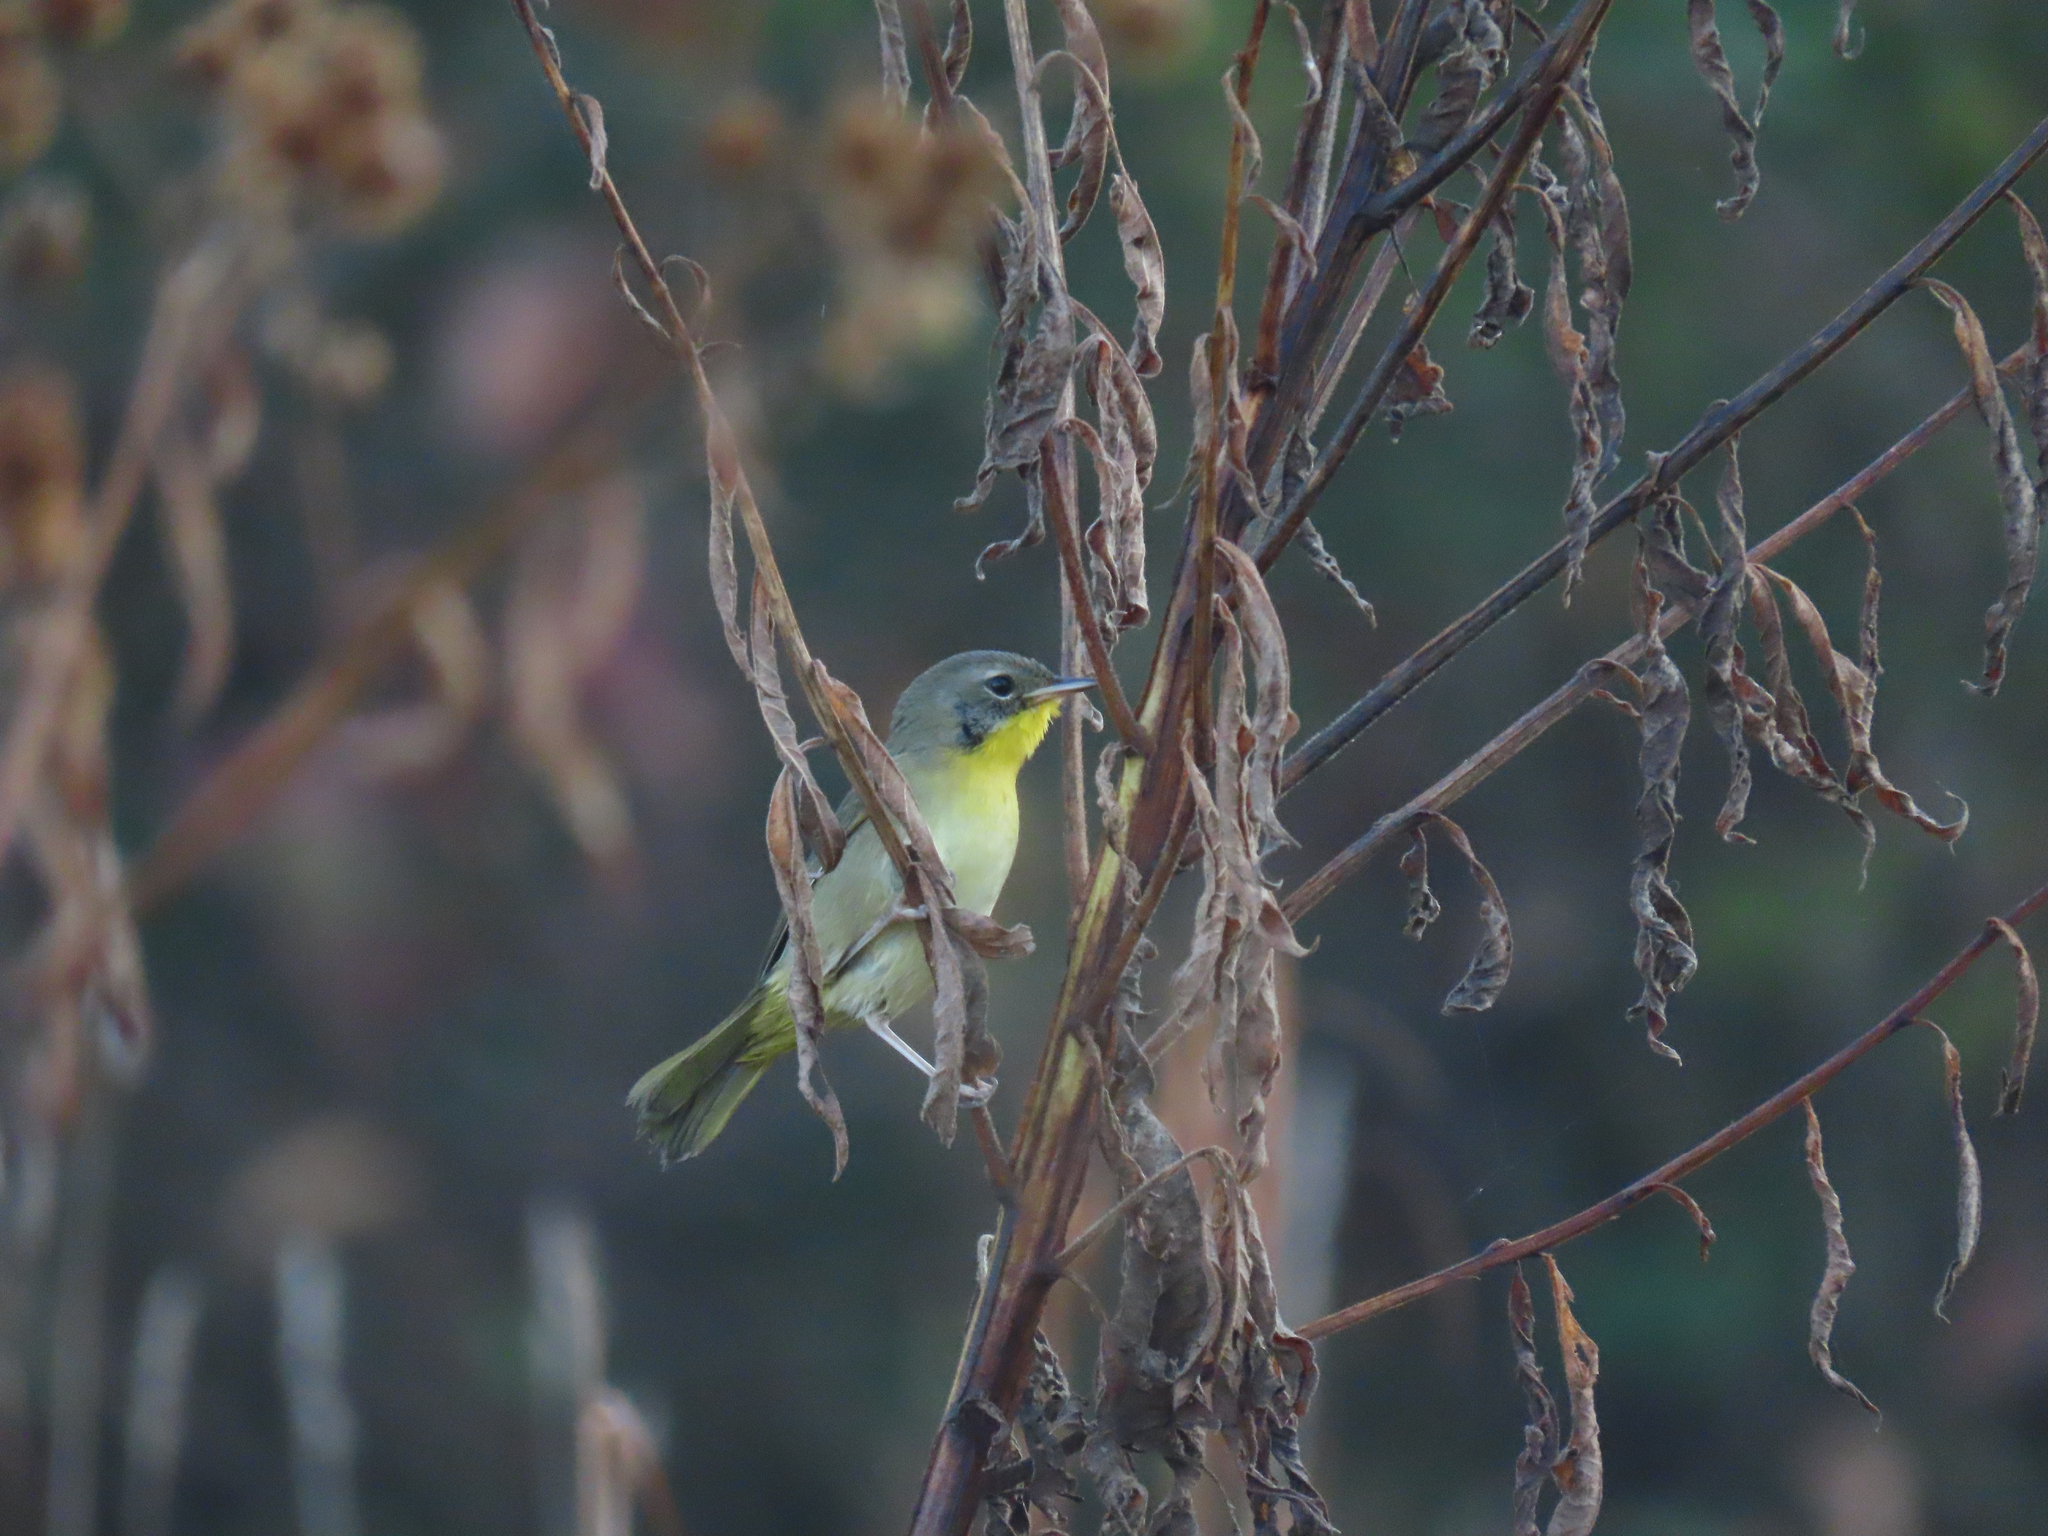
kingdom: Animalia
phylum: Chordata
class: Aves
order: Passeriformes
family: Parulidae
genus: Geothlypis
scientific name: Geothlypis trichas
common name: Common yellowthroat
